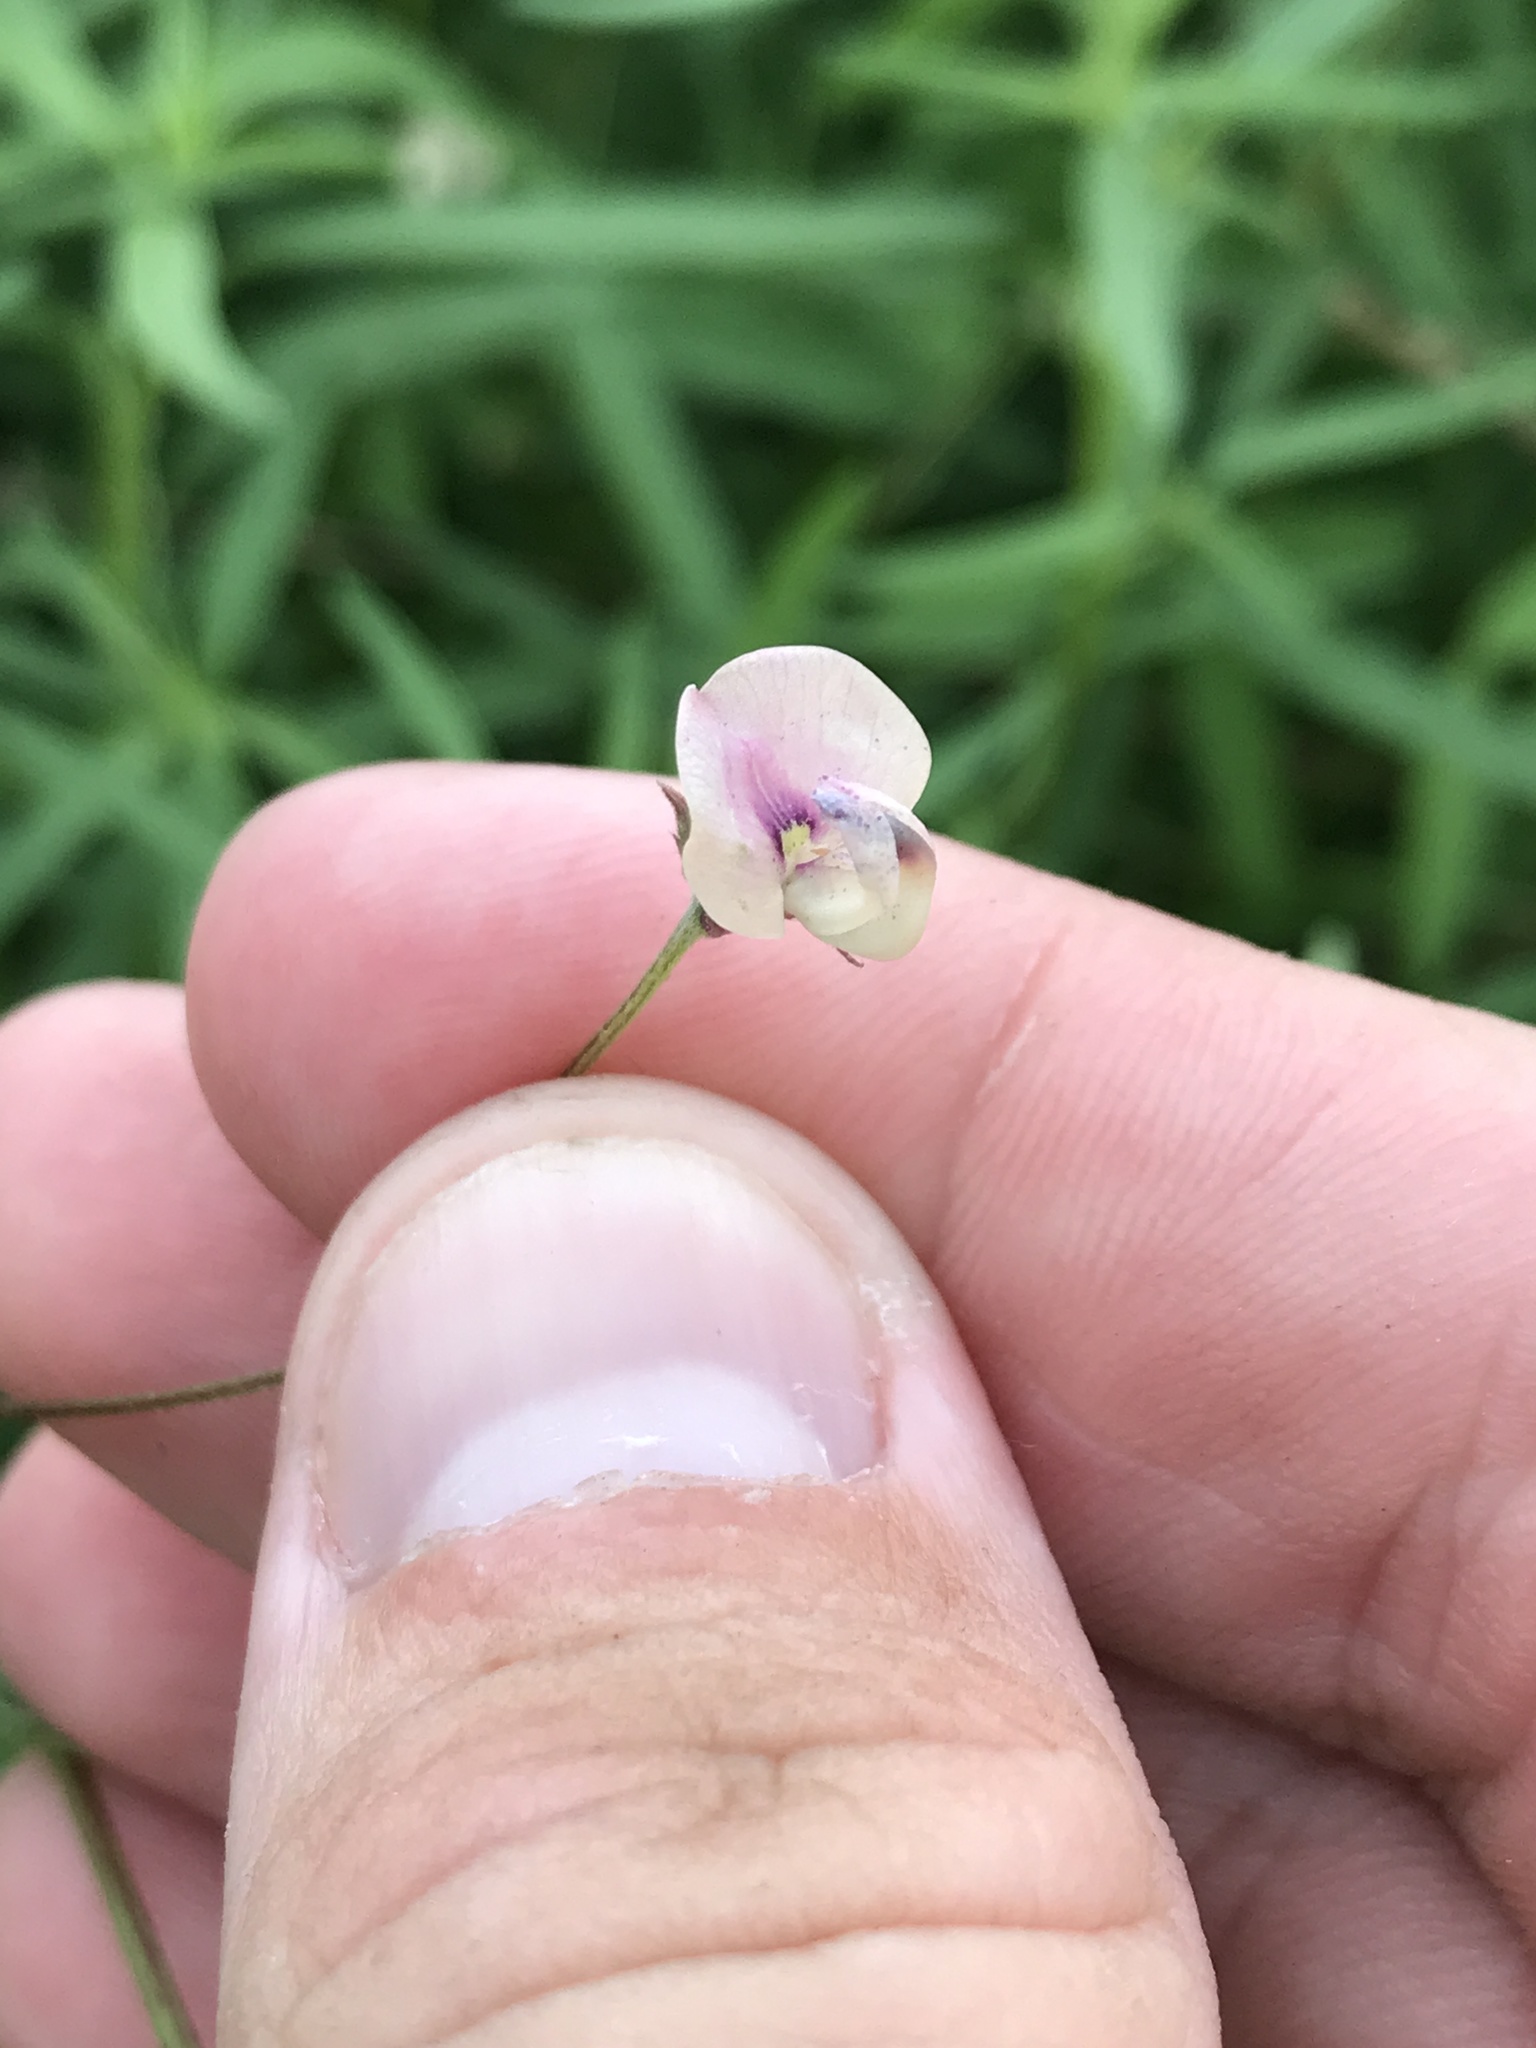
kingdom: Plantae
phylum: Tracheophyta
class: Magnoliopsida
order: Fabales
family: Fabaceae
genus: Strophostyles
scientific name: Strophostyles leiosperma
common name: Smooth-seed wild bean
